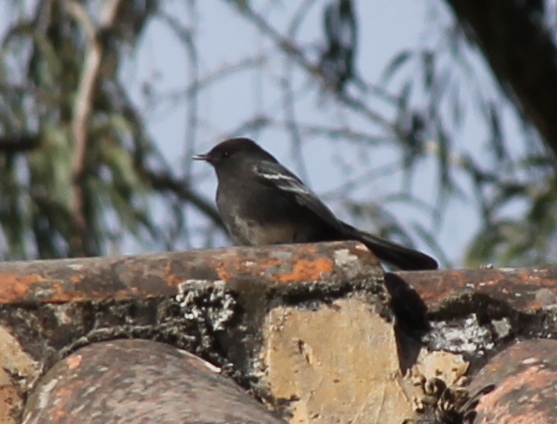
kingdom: Animalia
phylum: Chordata
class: Aves
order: Passeriformes
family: Tyrannidae
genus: Sayornis
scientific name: Sayornis nigricans
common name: Black phoebe
